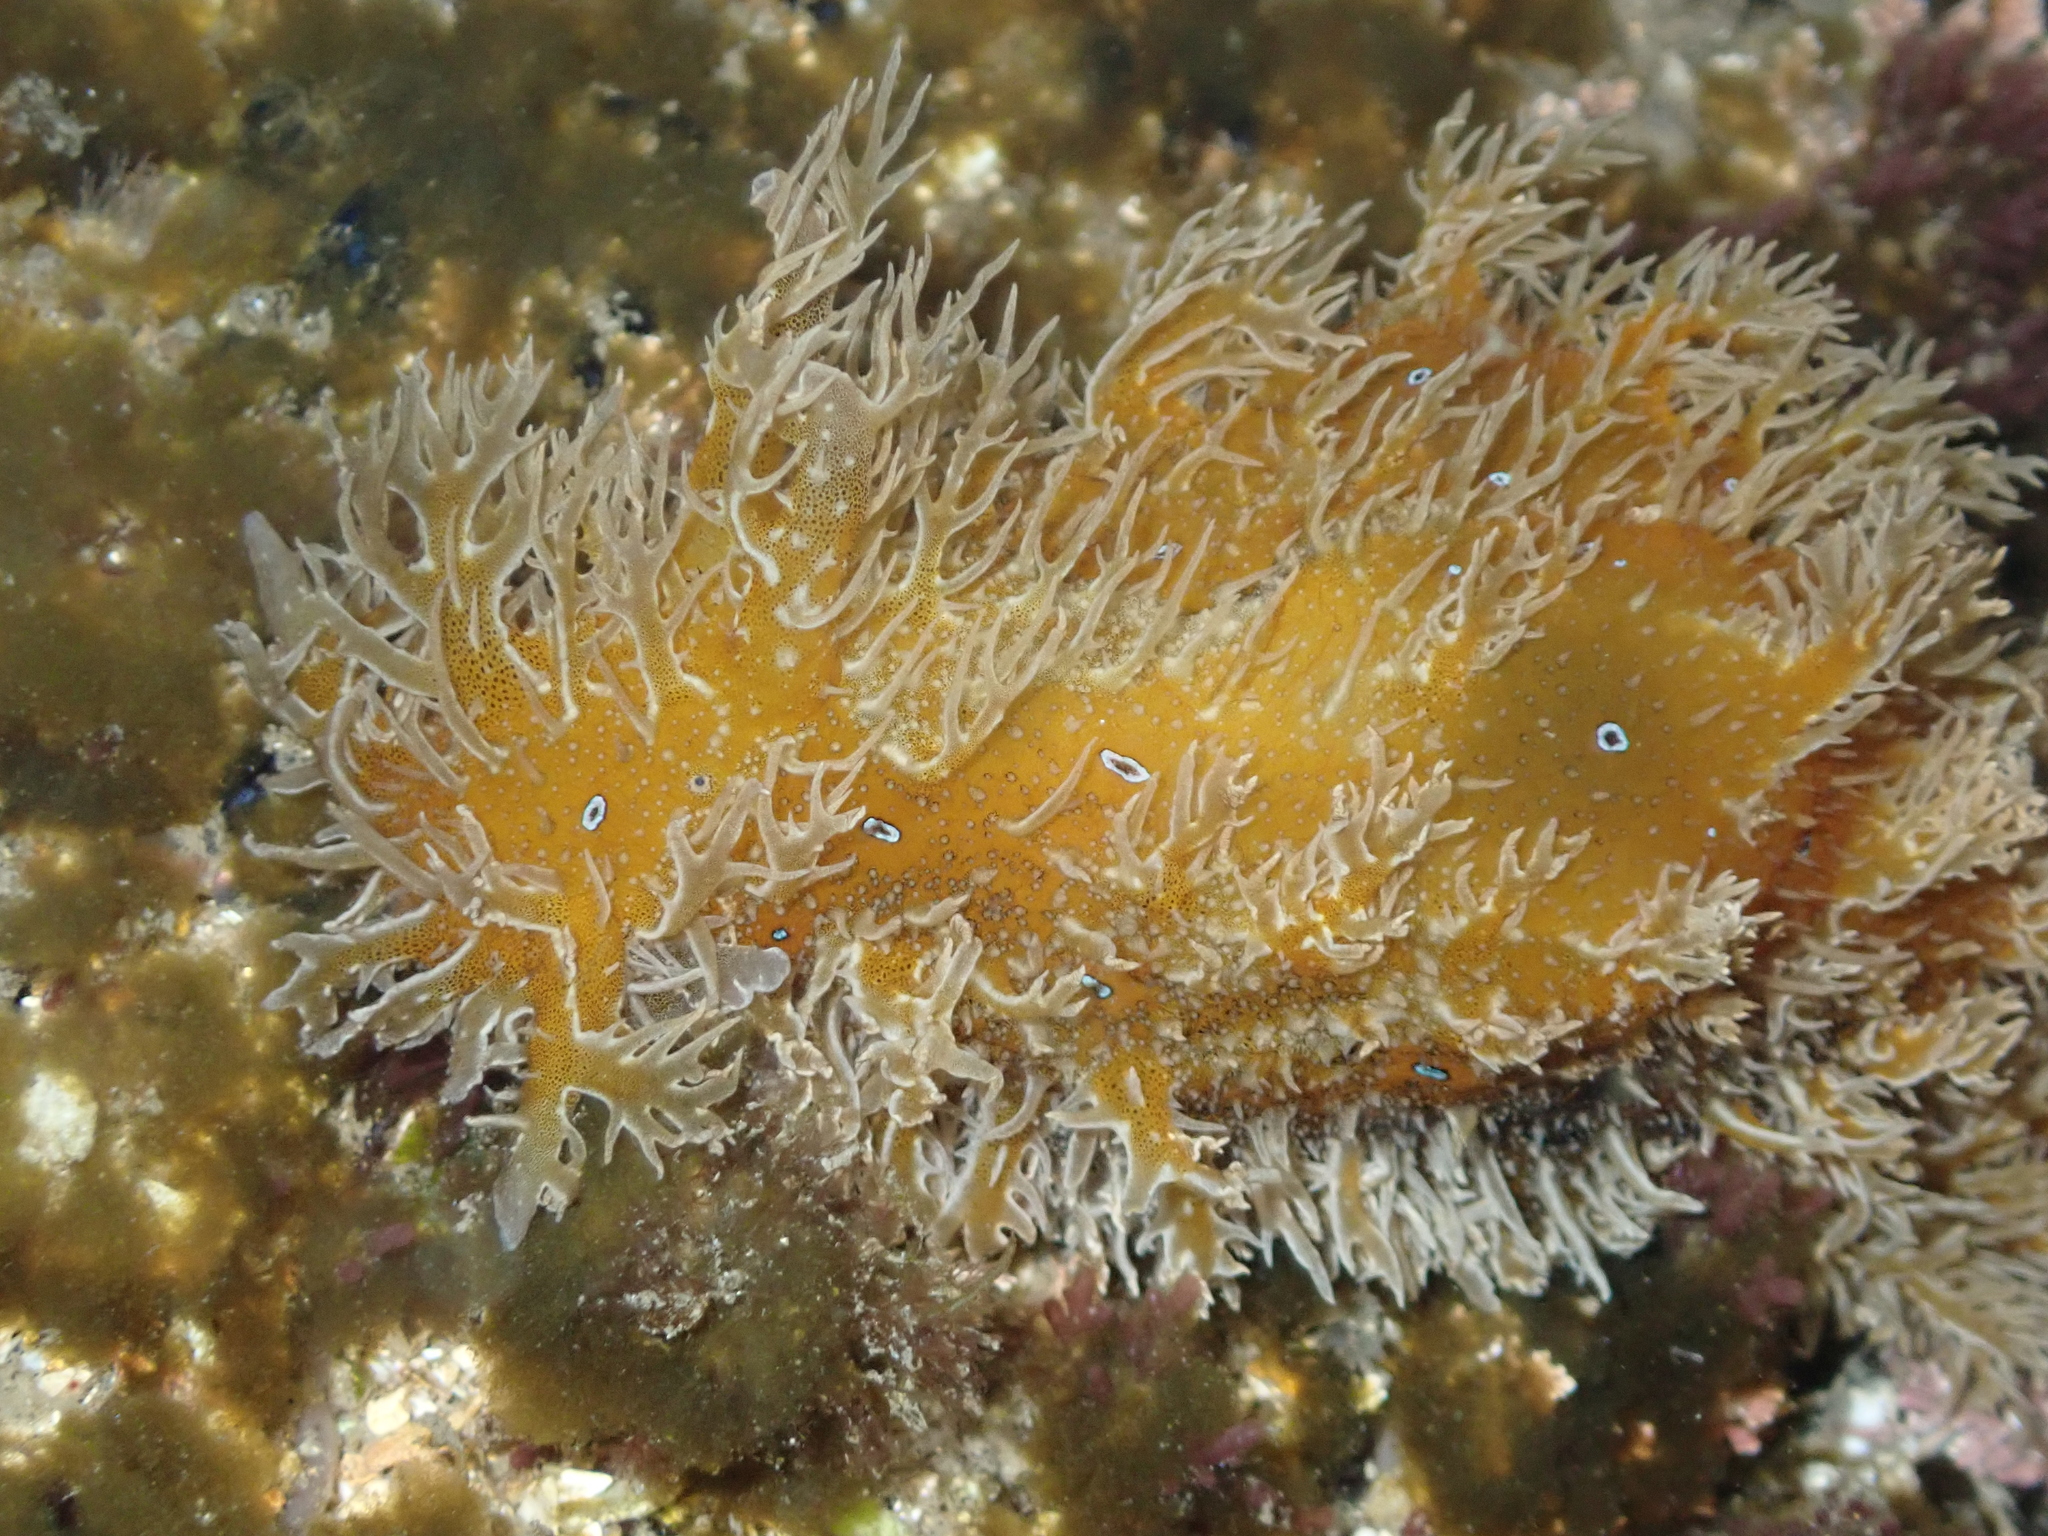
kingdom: Animalia
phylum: Mollusca
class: Gastropoda
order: Aplysiida
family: Aplysiidae
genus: Bursatella
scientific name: Bursatella leachii
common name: Shaggy sea hare
